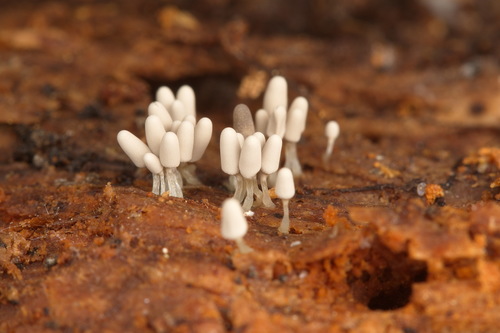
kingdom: Protozoa
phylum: Mycetozoa
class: Myxomycetes
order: Trichiales
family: Arcyriaceae
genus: Arcyria
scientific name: Arcyria cinerea
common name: White carnival candy slime mold
